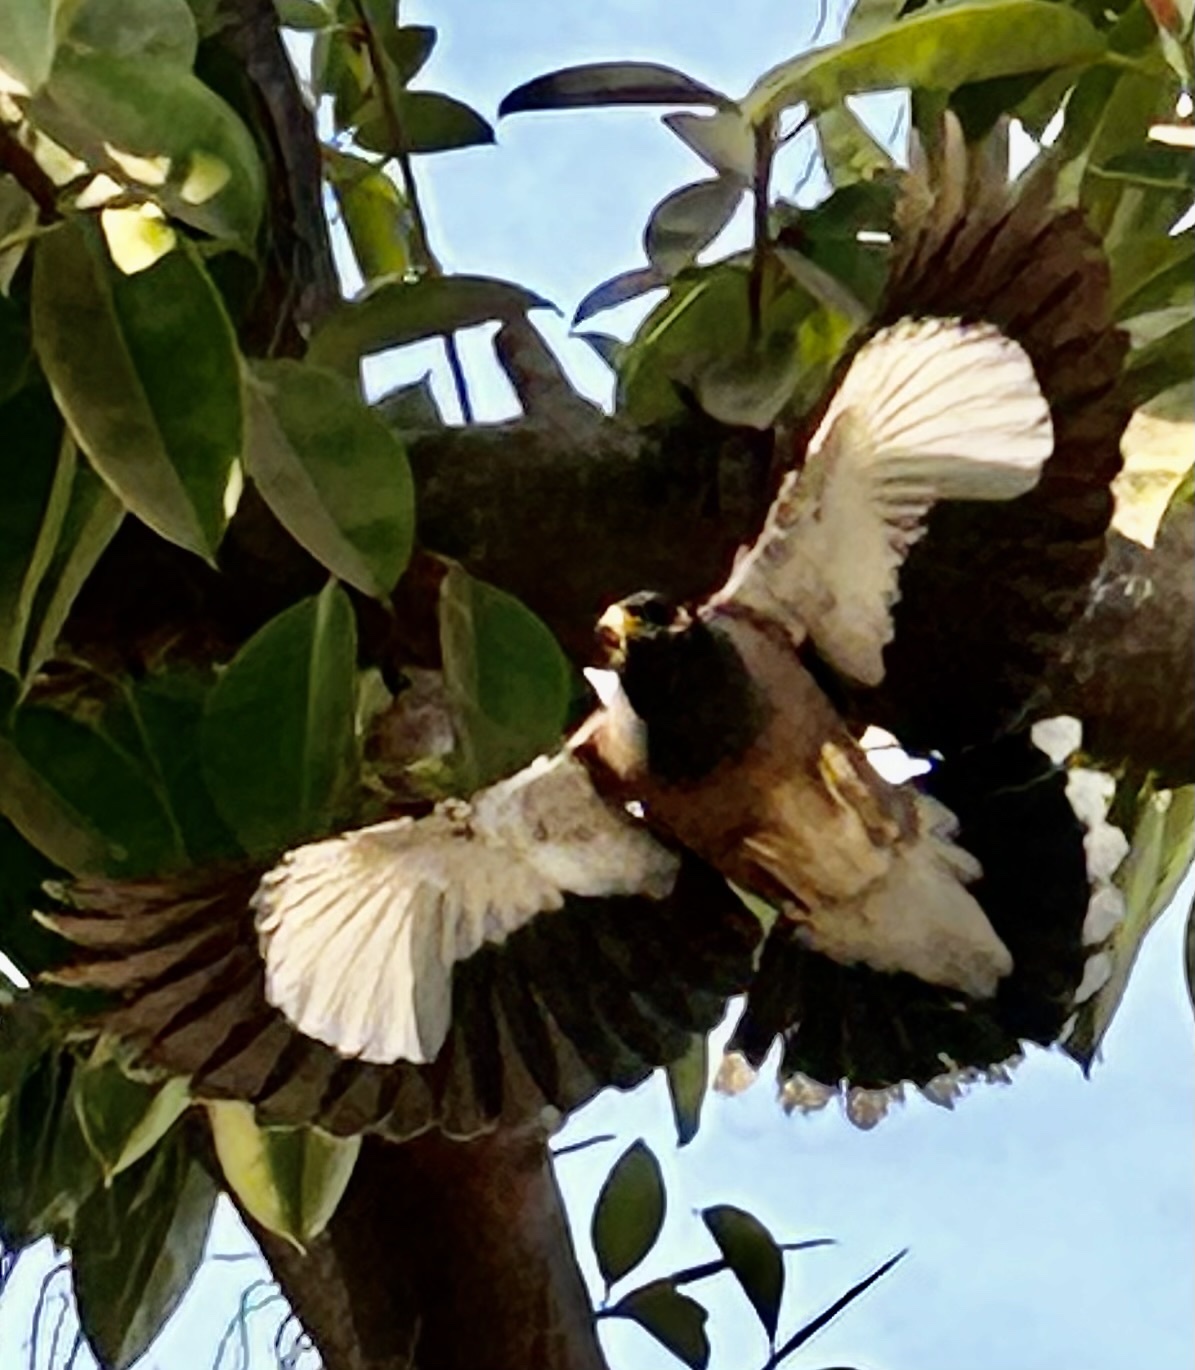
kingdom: Animalia
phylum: Chordata
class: Aves
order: Passeriformes
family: Sturnidae
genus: Acridotheres
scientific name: Acridotheres tristis
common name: Common myna
